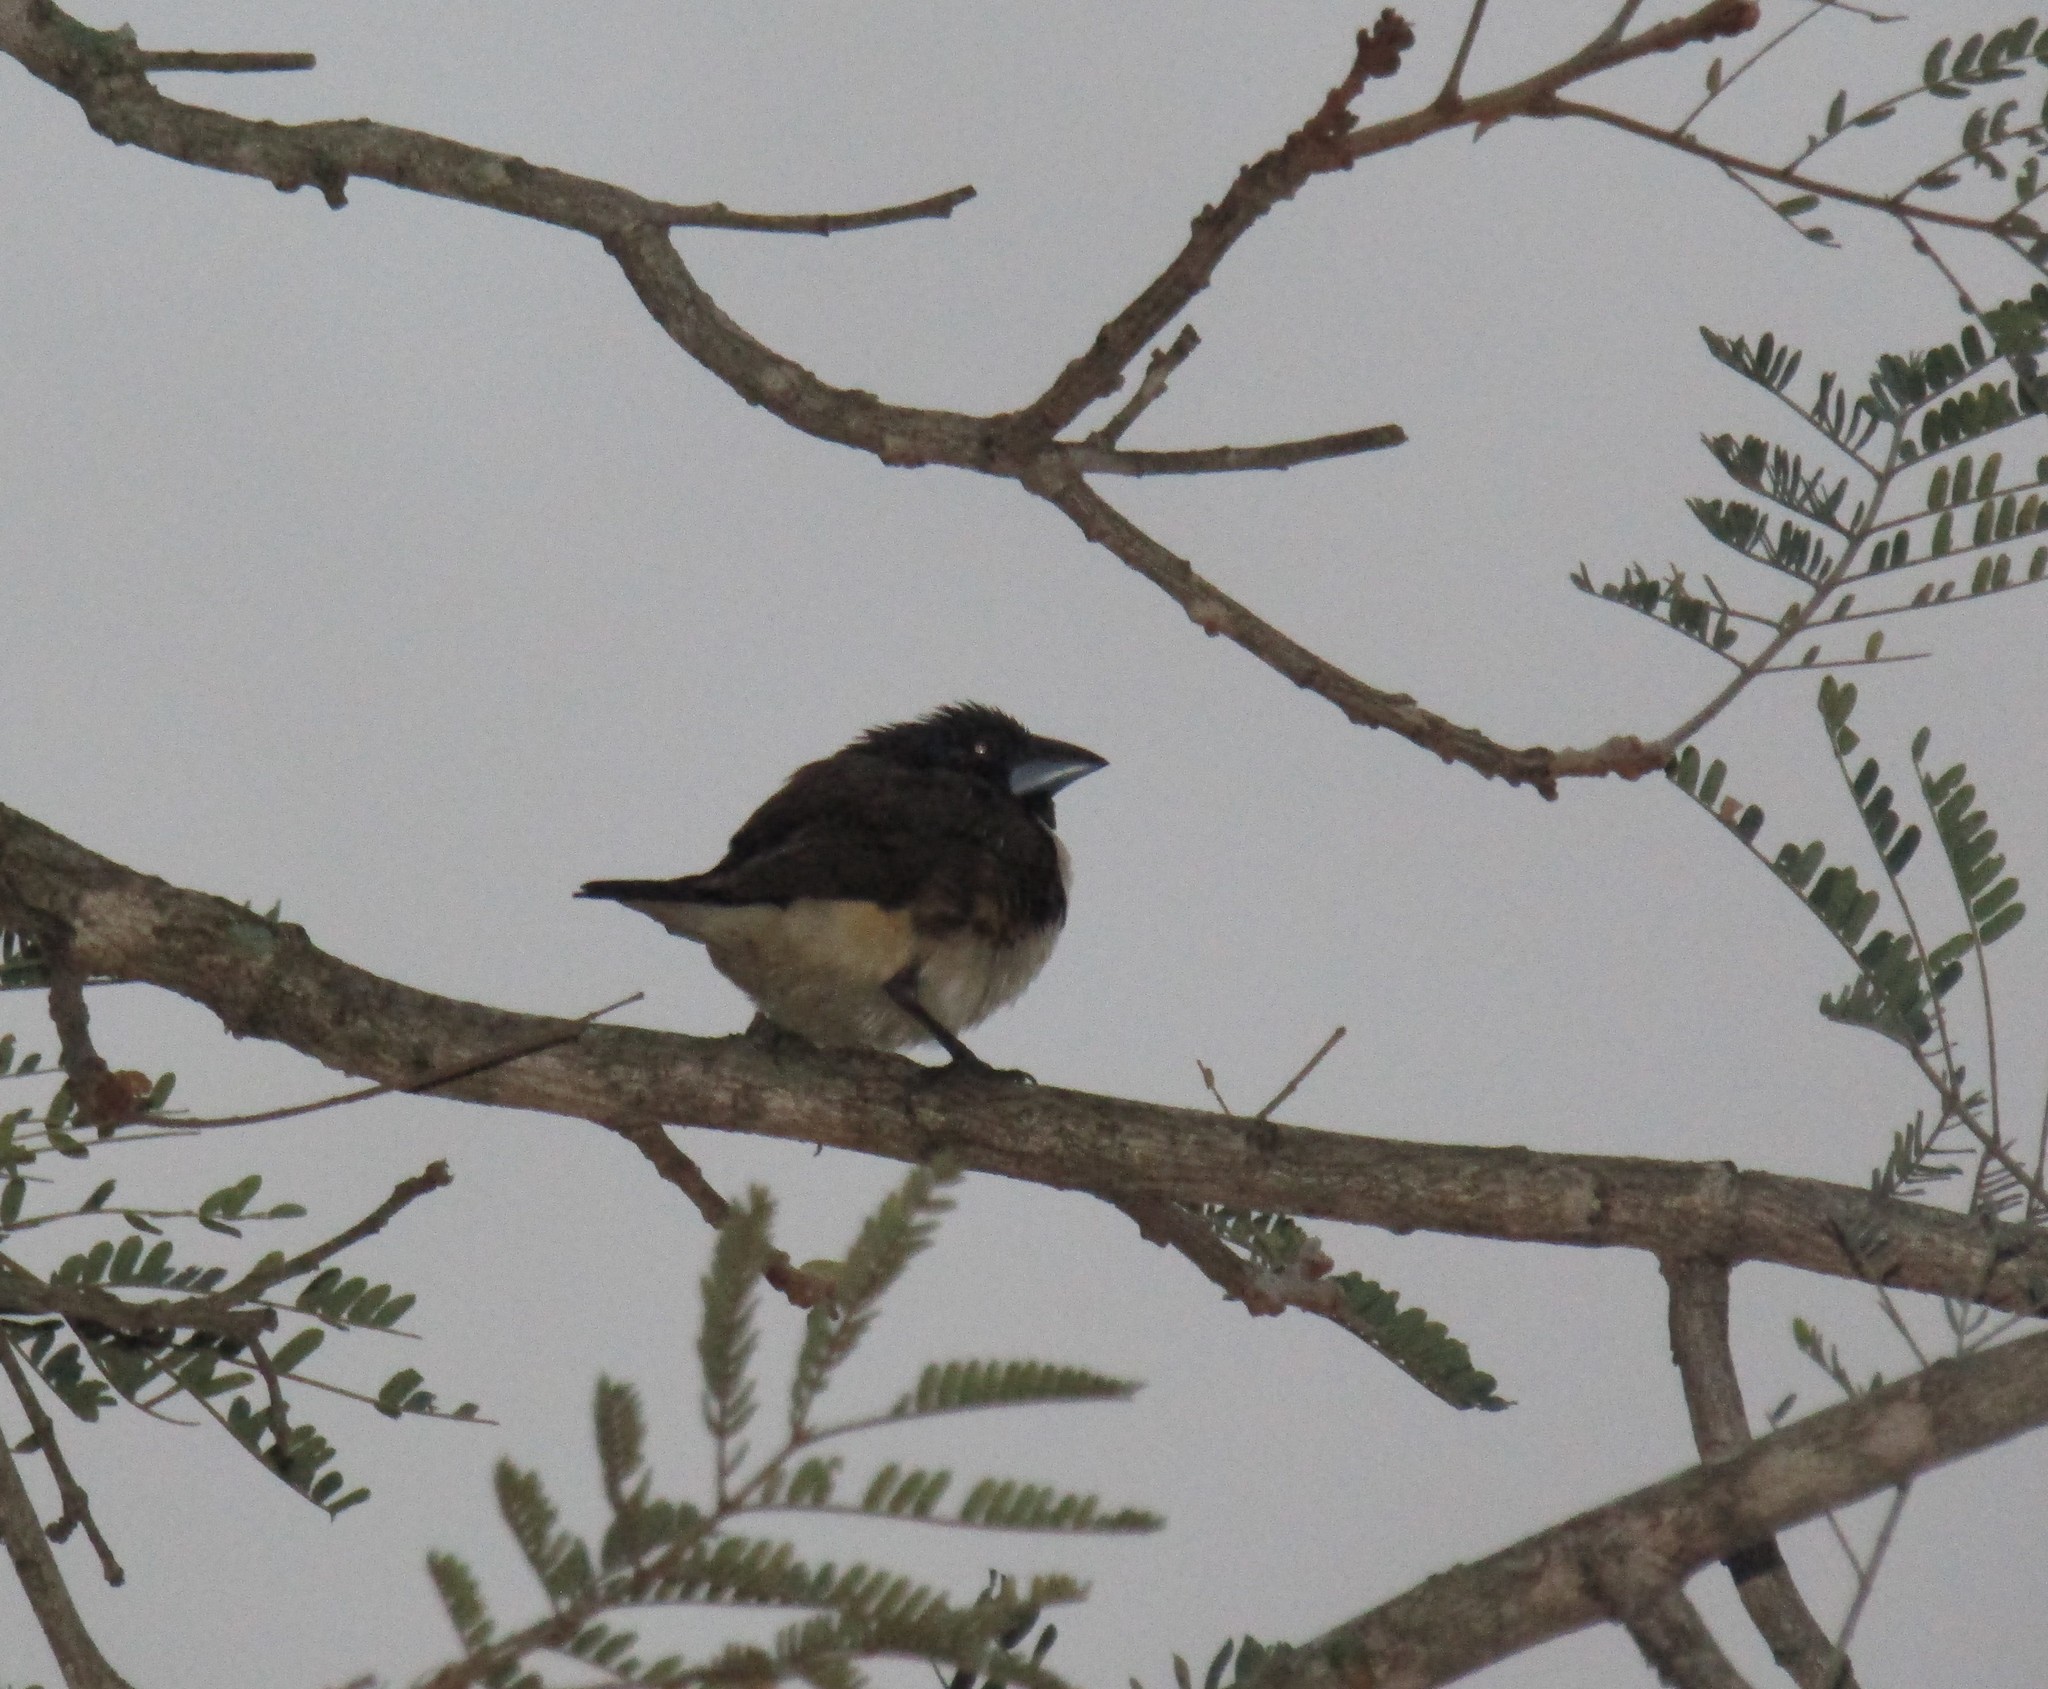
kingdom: Animalia
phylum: Chordata
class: Aves
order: Passeriformes
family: Estrildidae
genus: Lonchura
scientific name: Lonchura fringilloides
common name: Magpie mannikin
